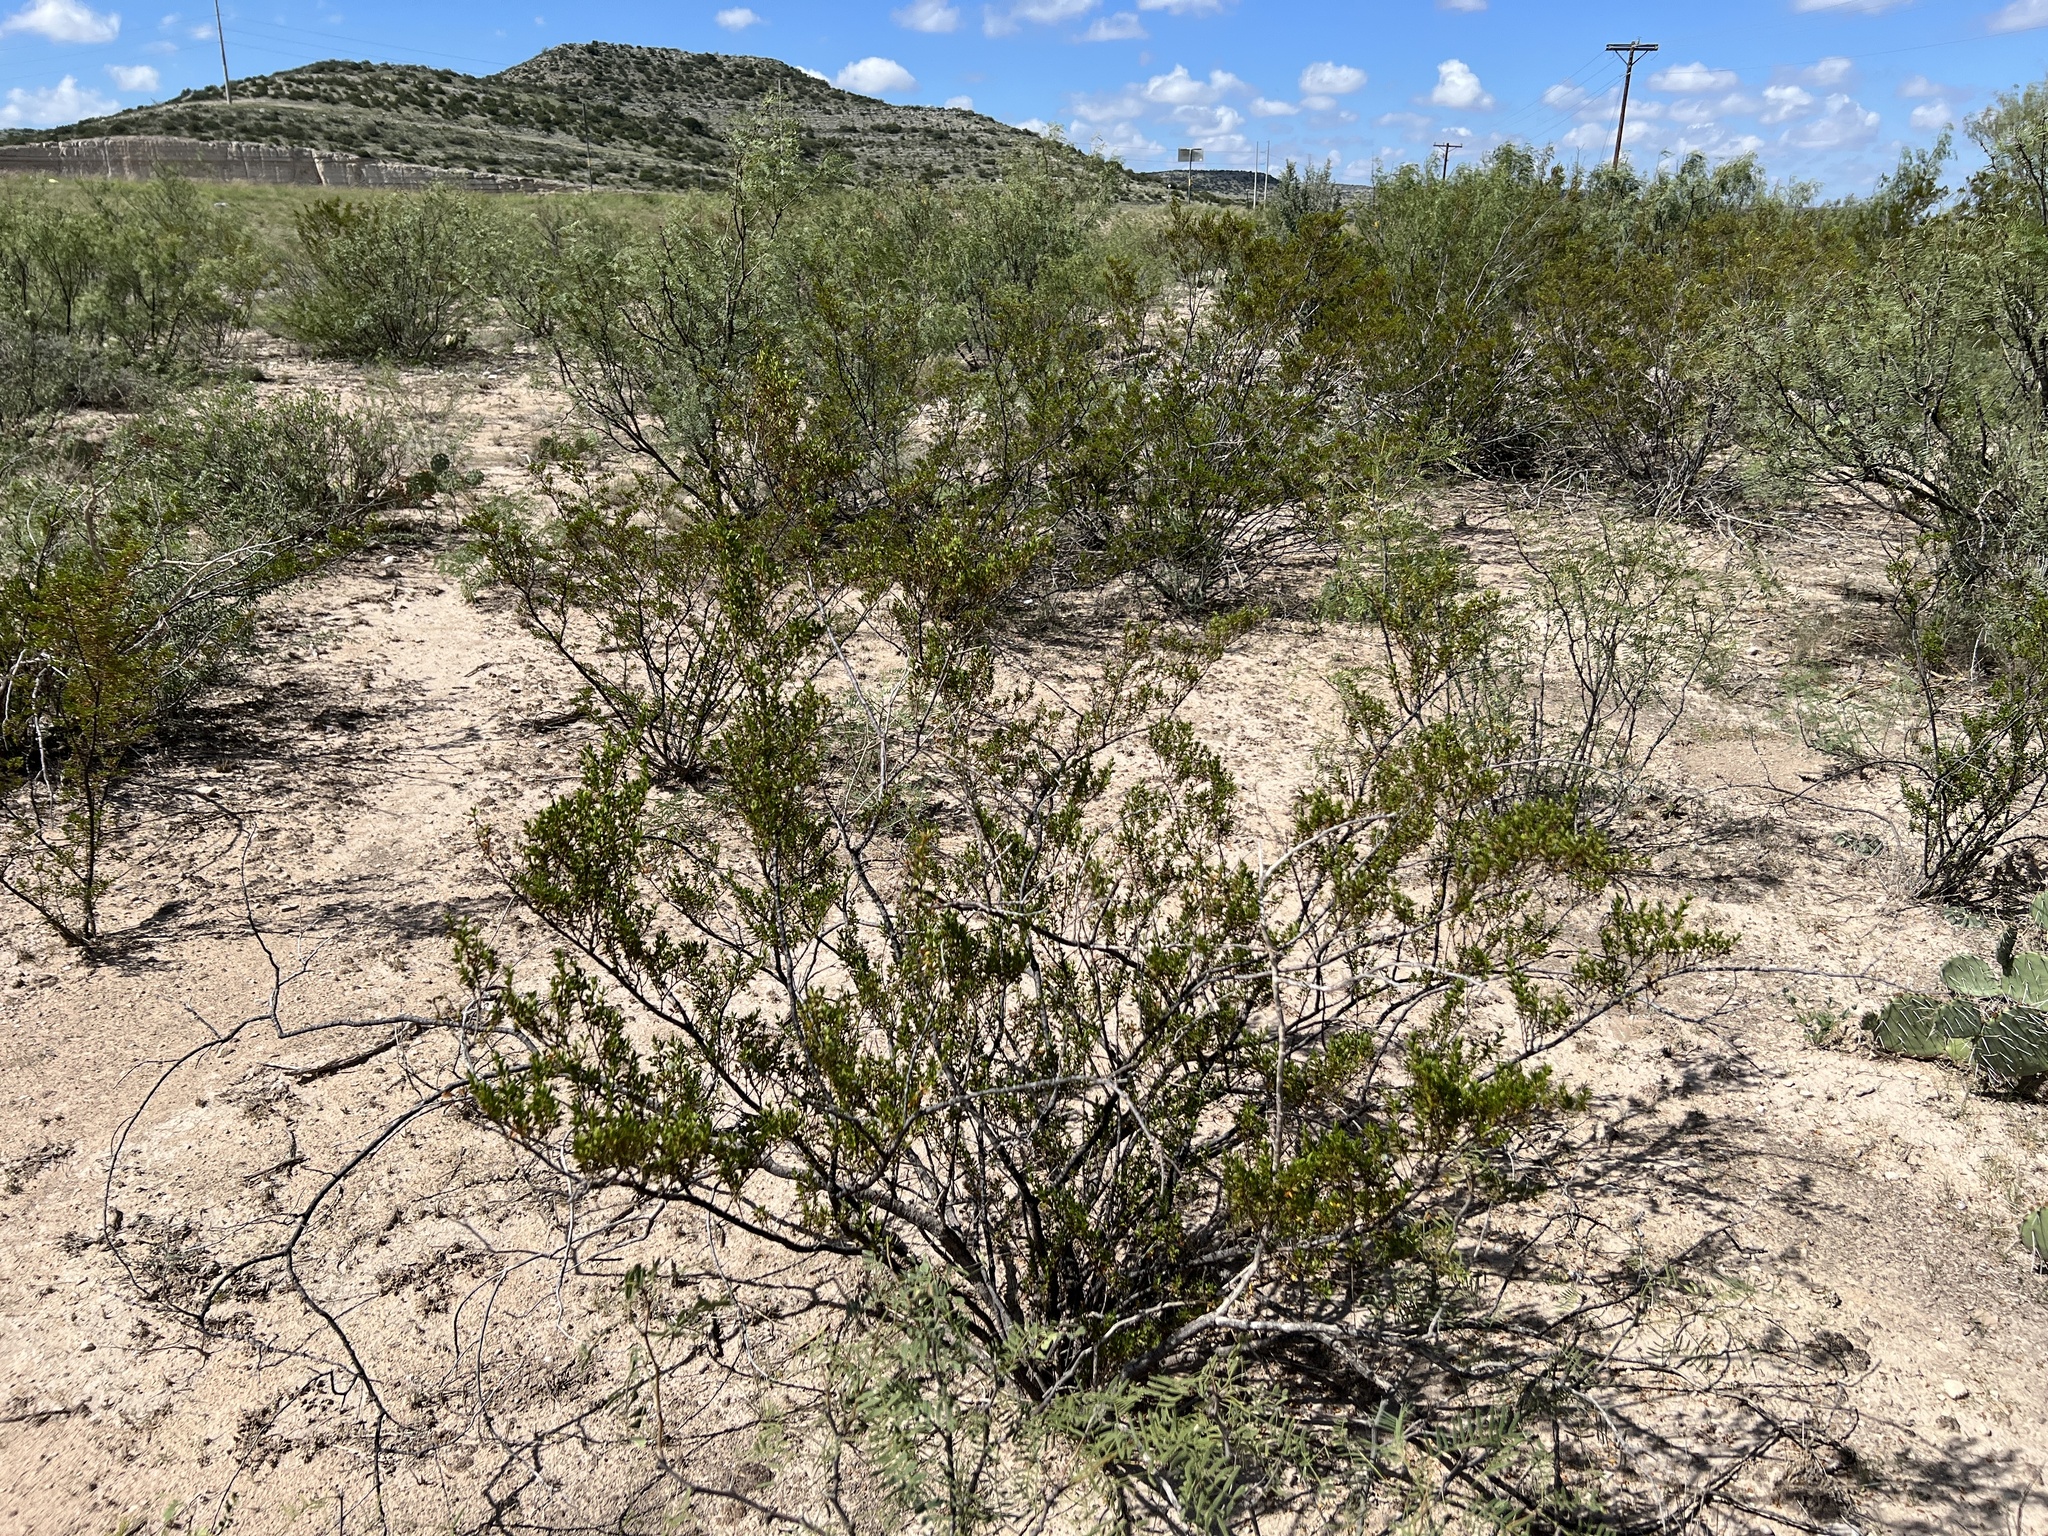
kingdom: Plantae
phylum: Tracheophyta
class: Magnoliopsida
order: Zygophyllales
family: Zygophyllaceae
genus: Larrea
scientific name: Larrea tridentata
